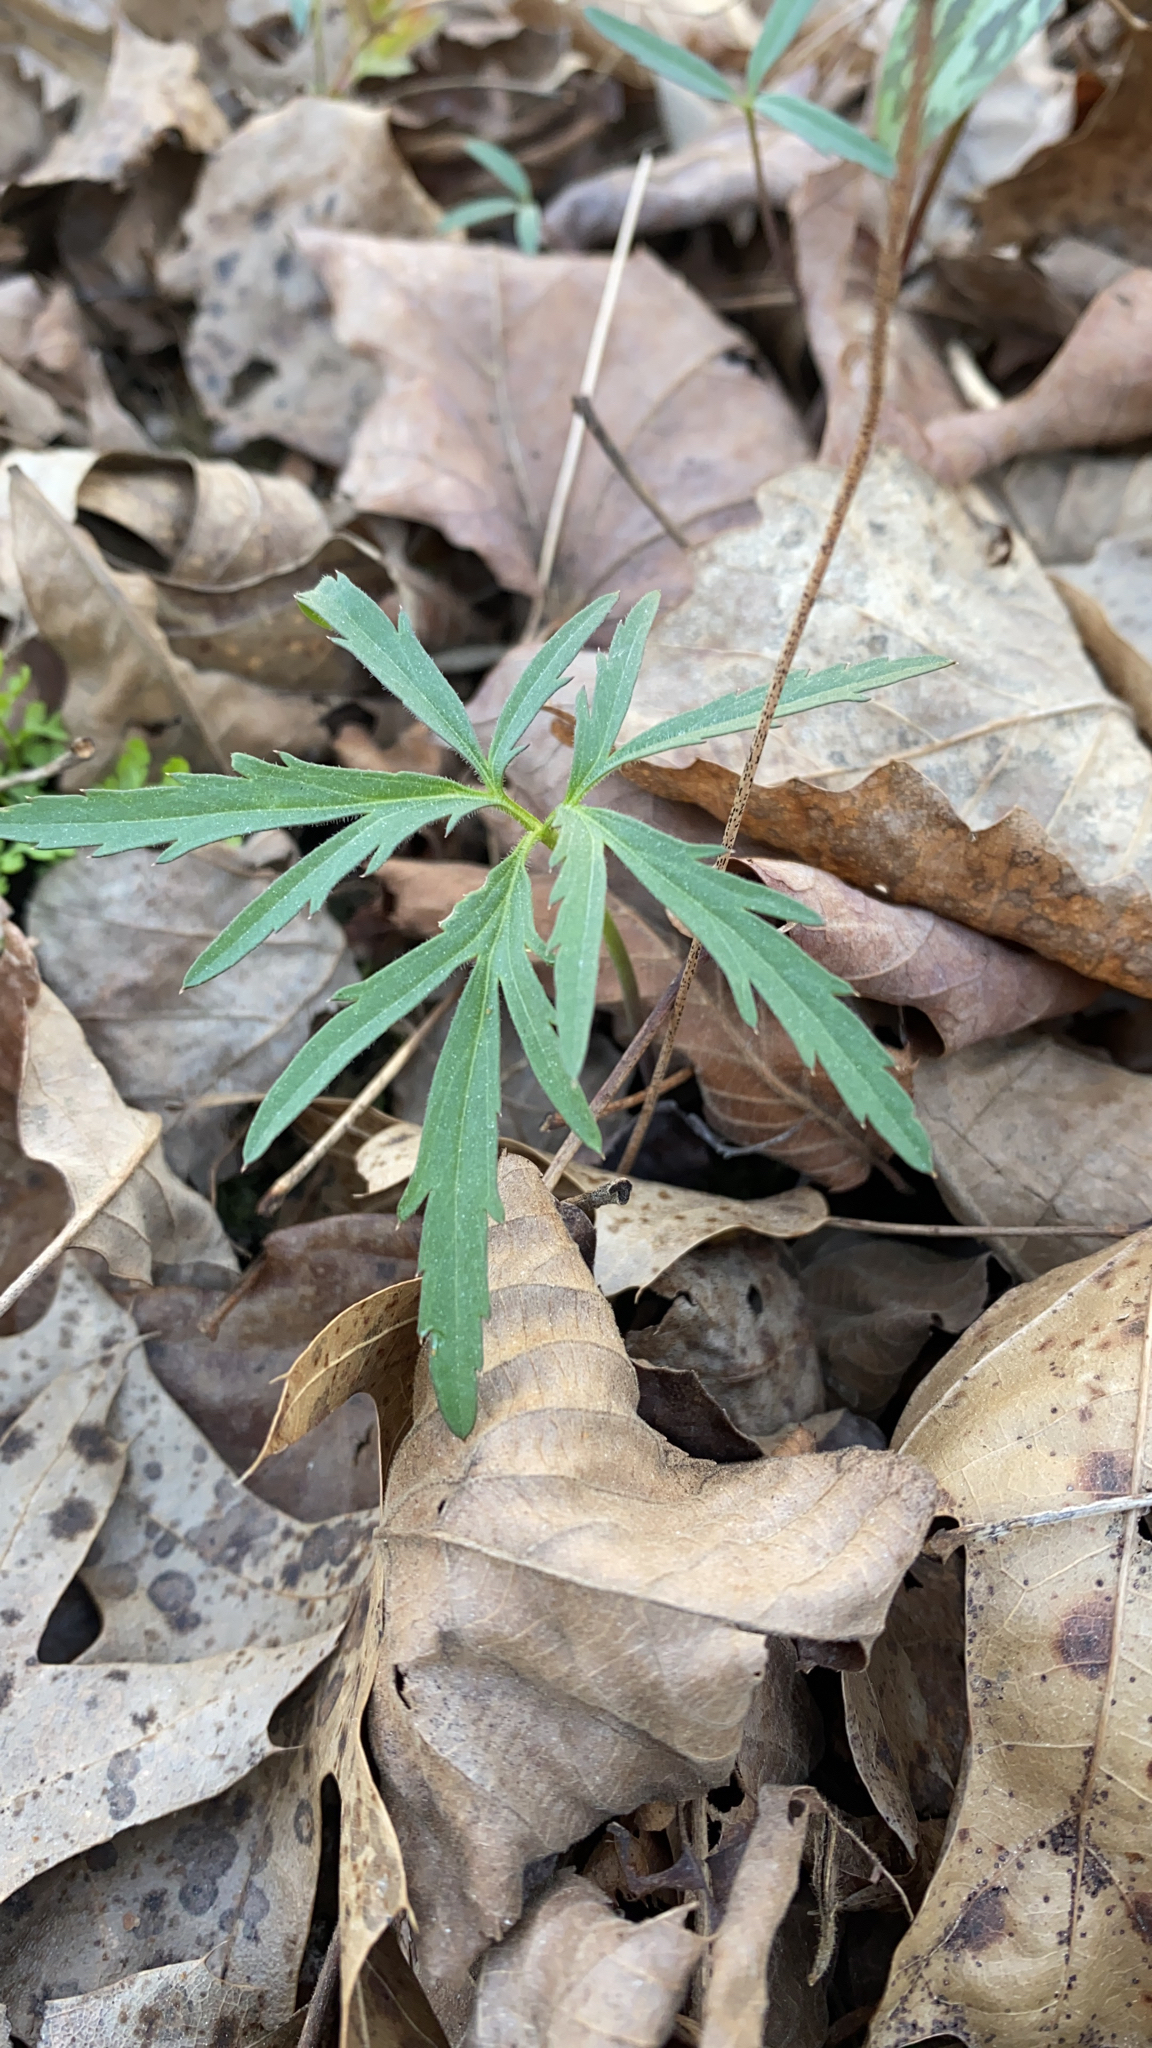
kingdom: Plantae
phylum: Tracheophyta
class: Magnoliopsida
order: Brassicales
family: Brassicaceae
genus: Cardamine
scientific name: Cardamine concatenata
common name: Cut-leaf toothcup
